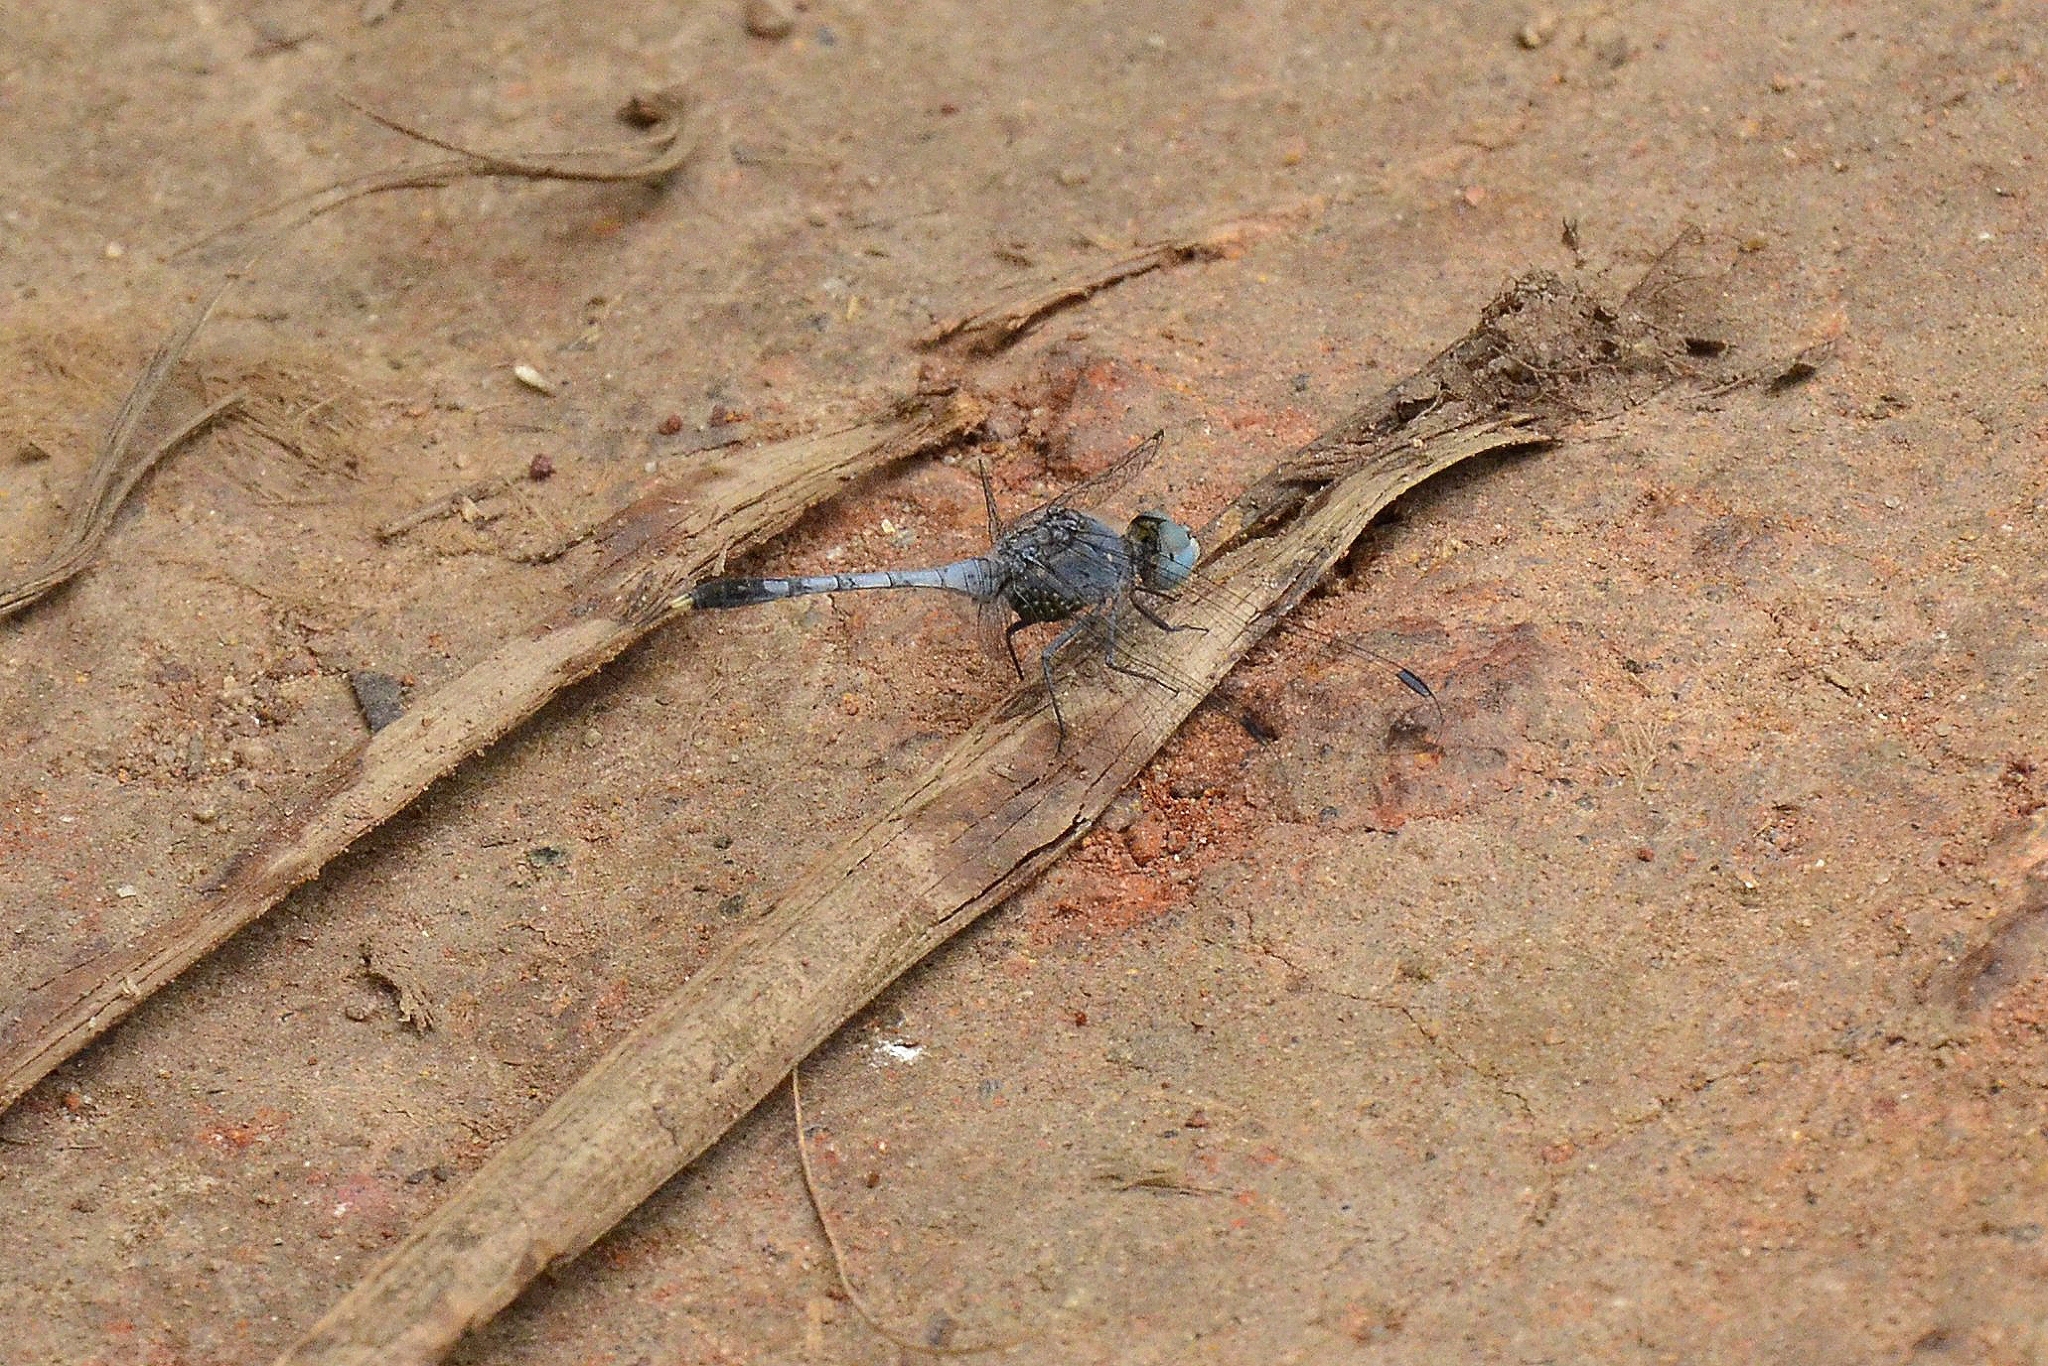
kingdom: Animalia
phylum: Arthropoda
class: Insecta
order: Odonata
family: Libellulidae
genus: Diplacodes
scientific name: Diplacodes trivialis
